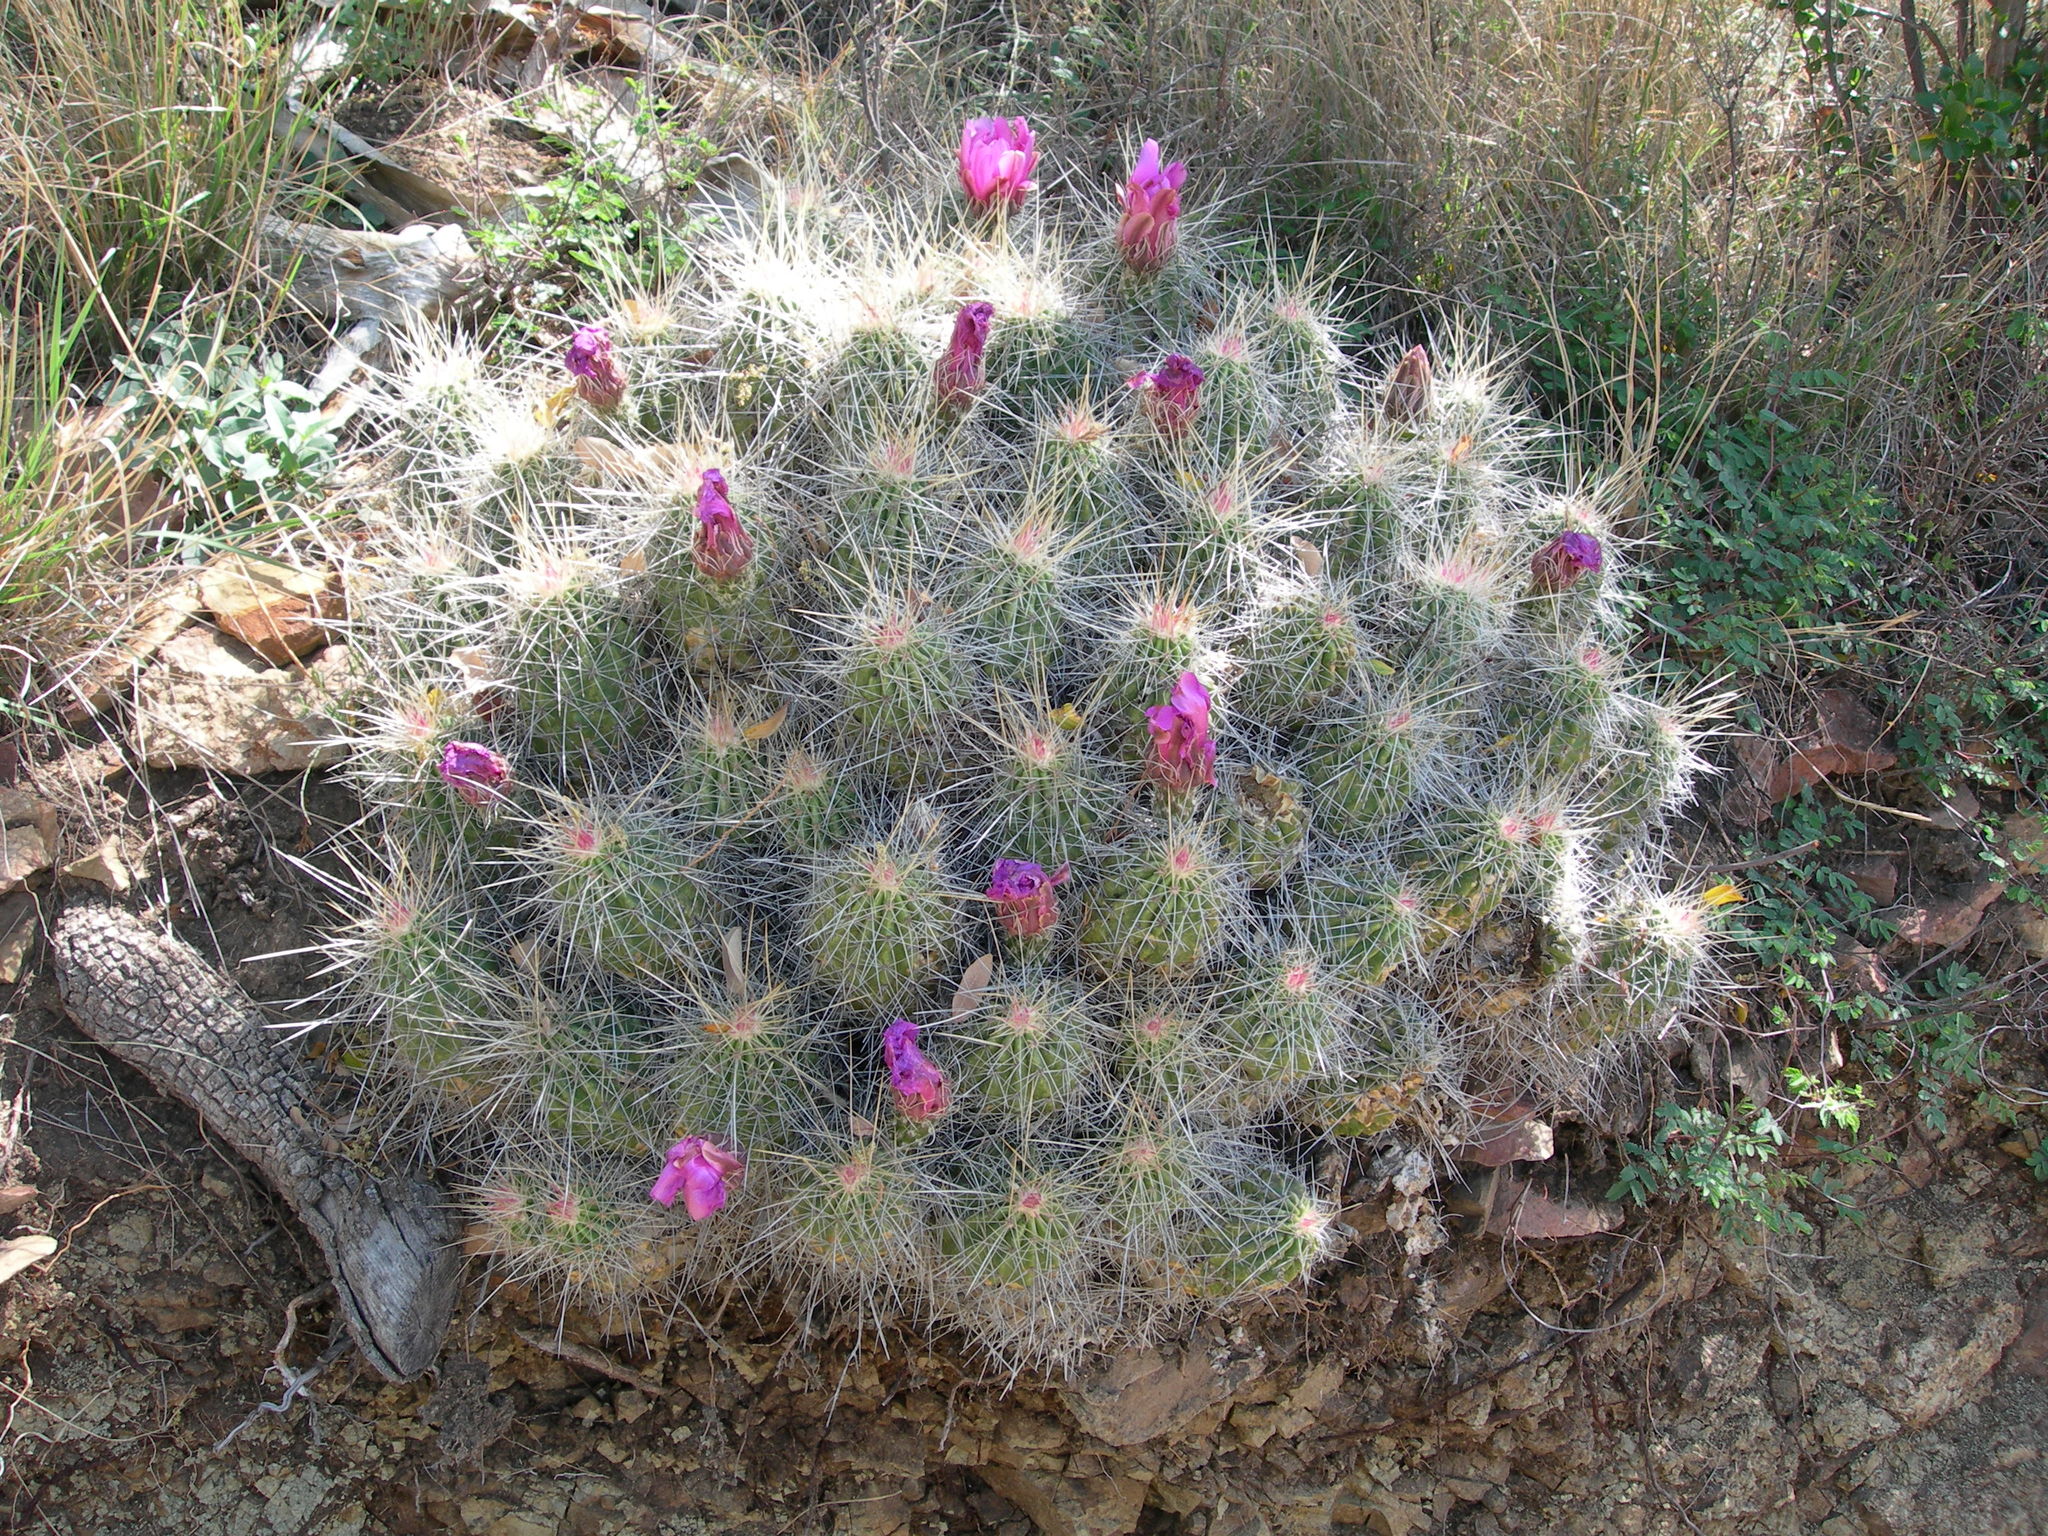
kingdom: Plantae
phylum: Tracheophyta
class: Magnoliopsida
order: Caryophyllales
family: Cactaceae
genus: Echinocereus
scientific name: Echinocereus stramineus
